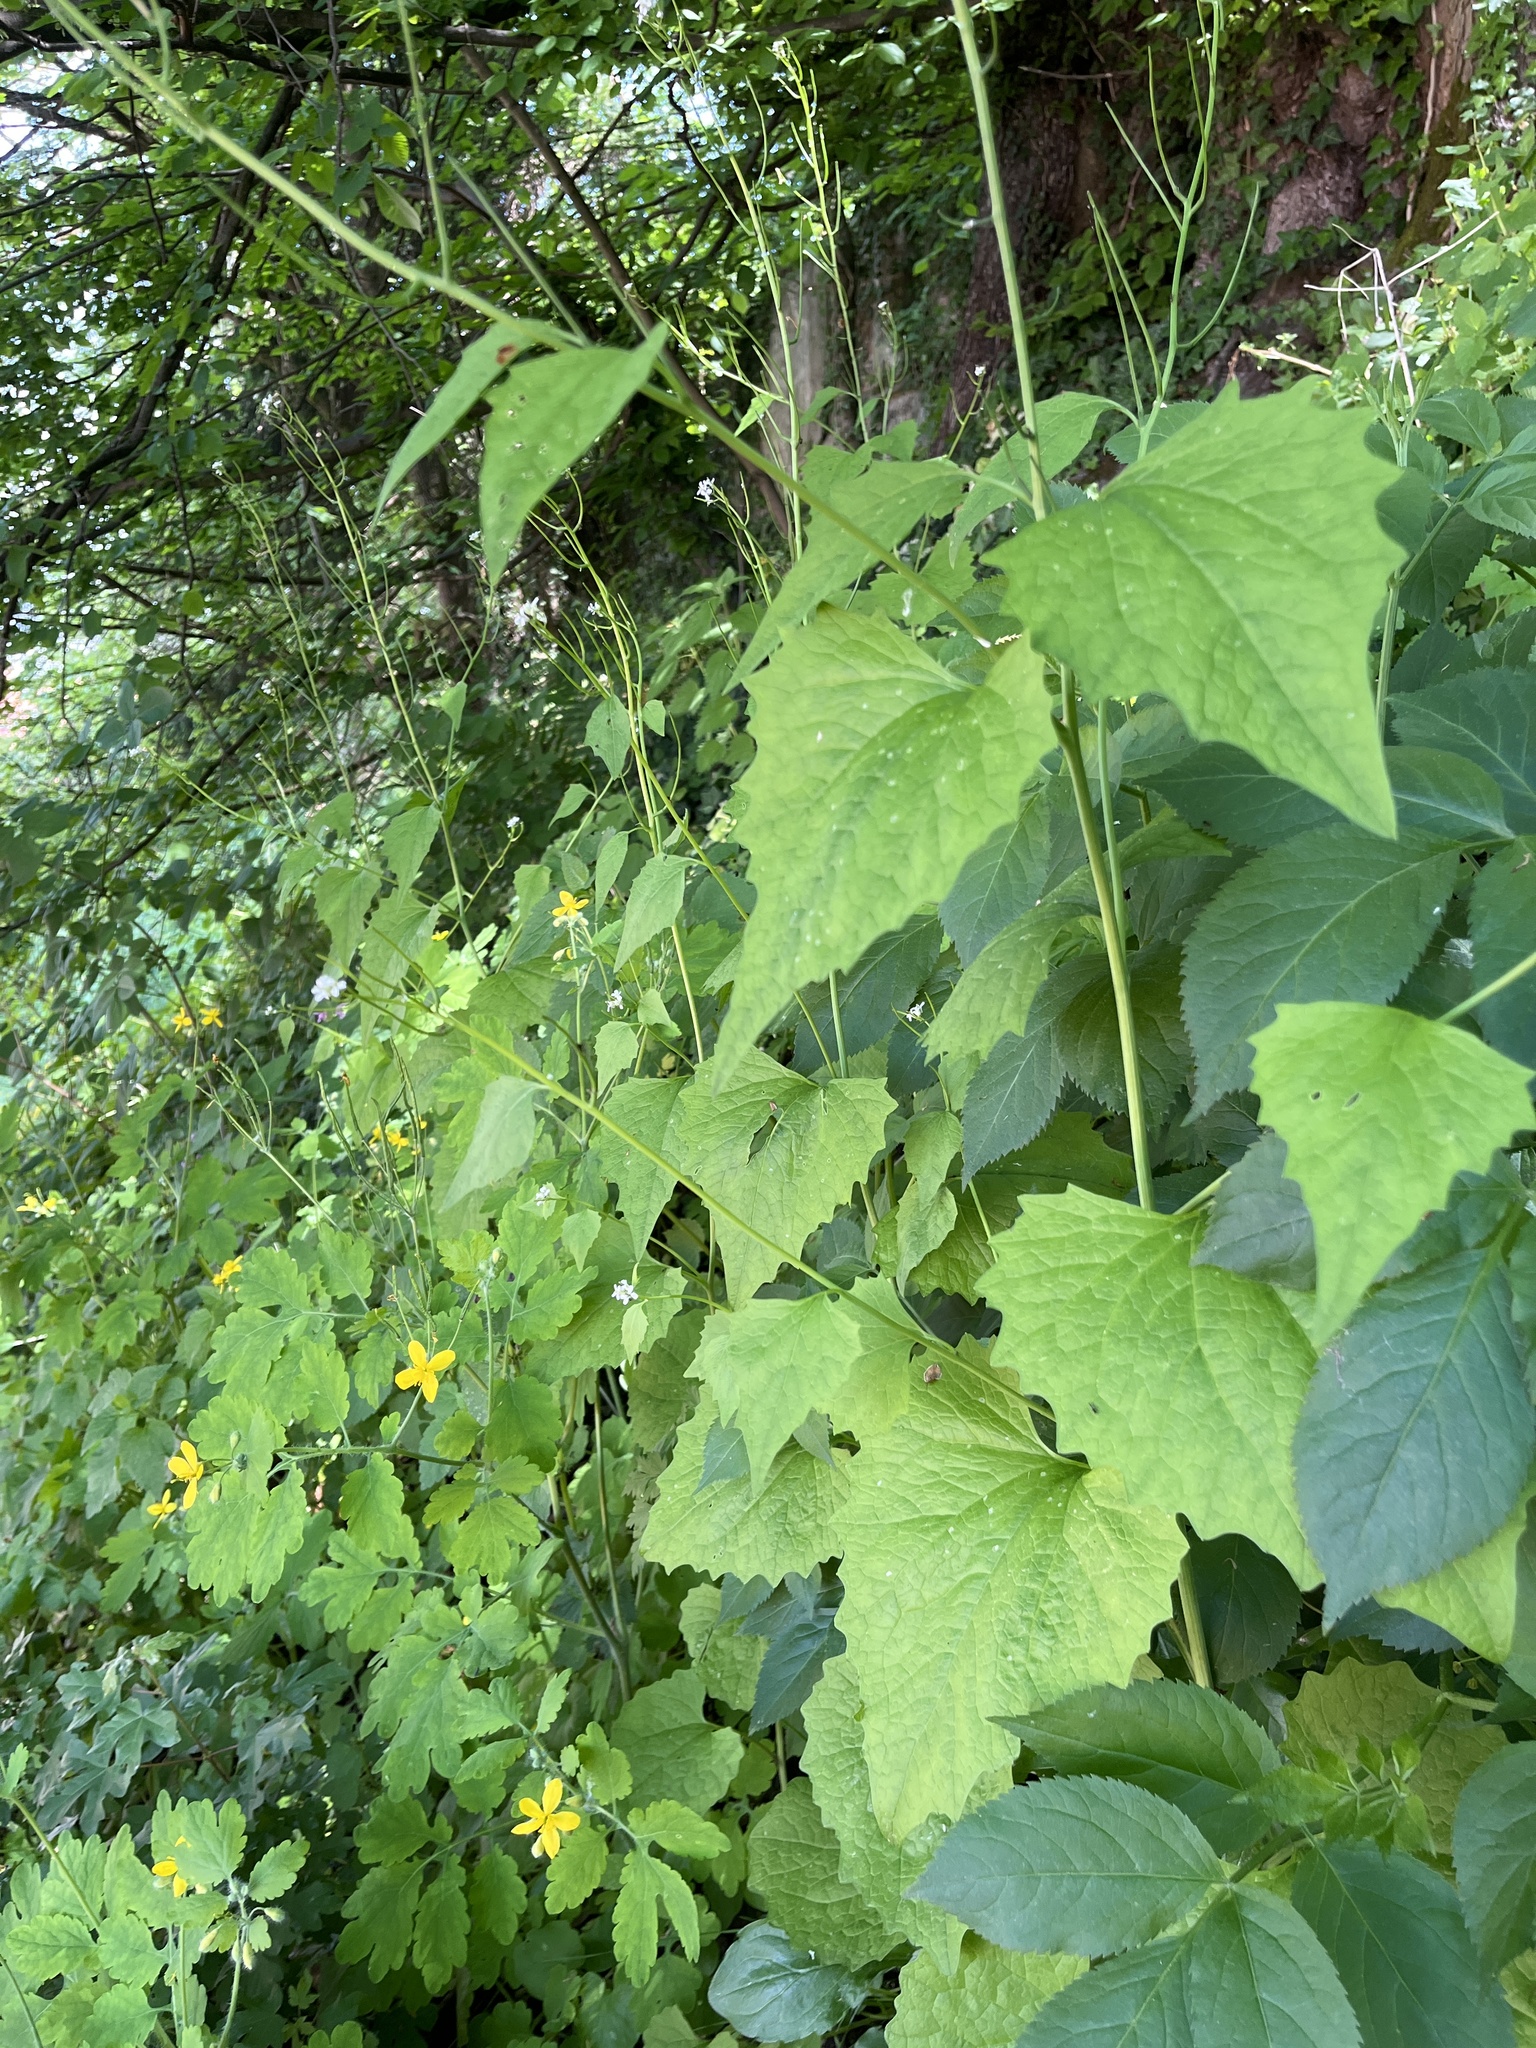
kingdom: Plantae
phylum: Tracheophyta
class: Magnoliopsida
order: Brassicales
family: Brassicaceae
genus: Alliaria
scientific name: Alliaria petiolata
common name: Garlic mustard
